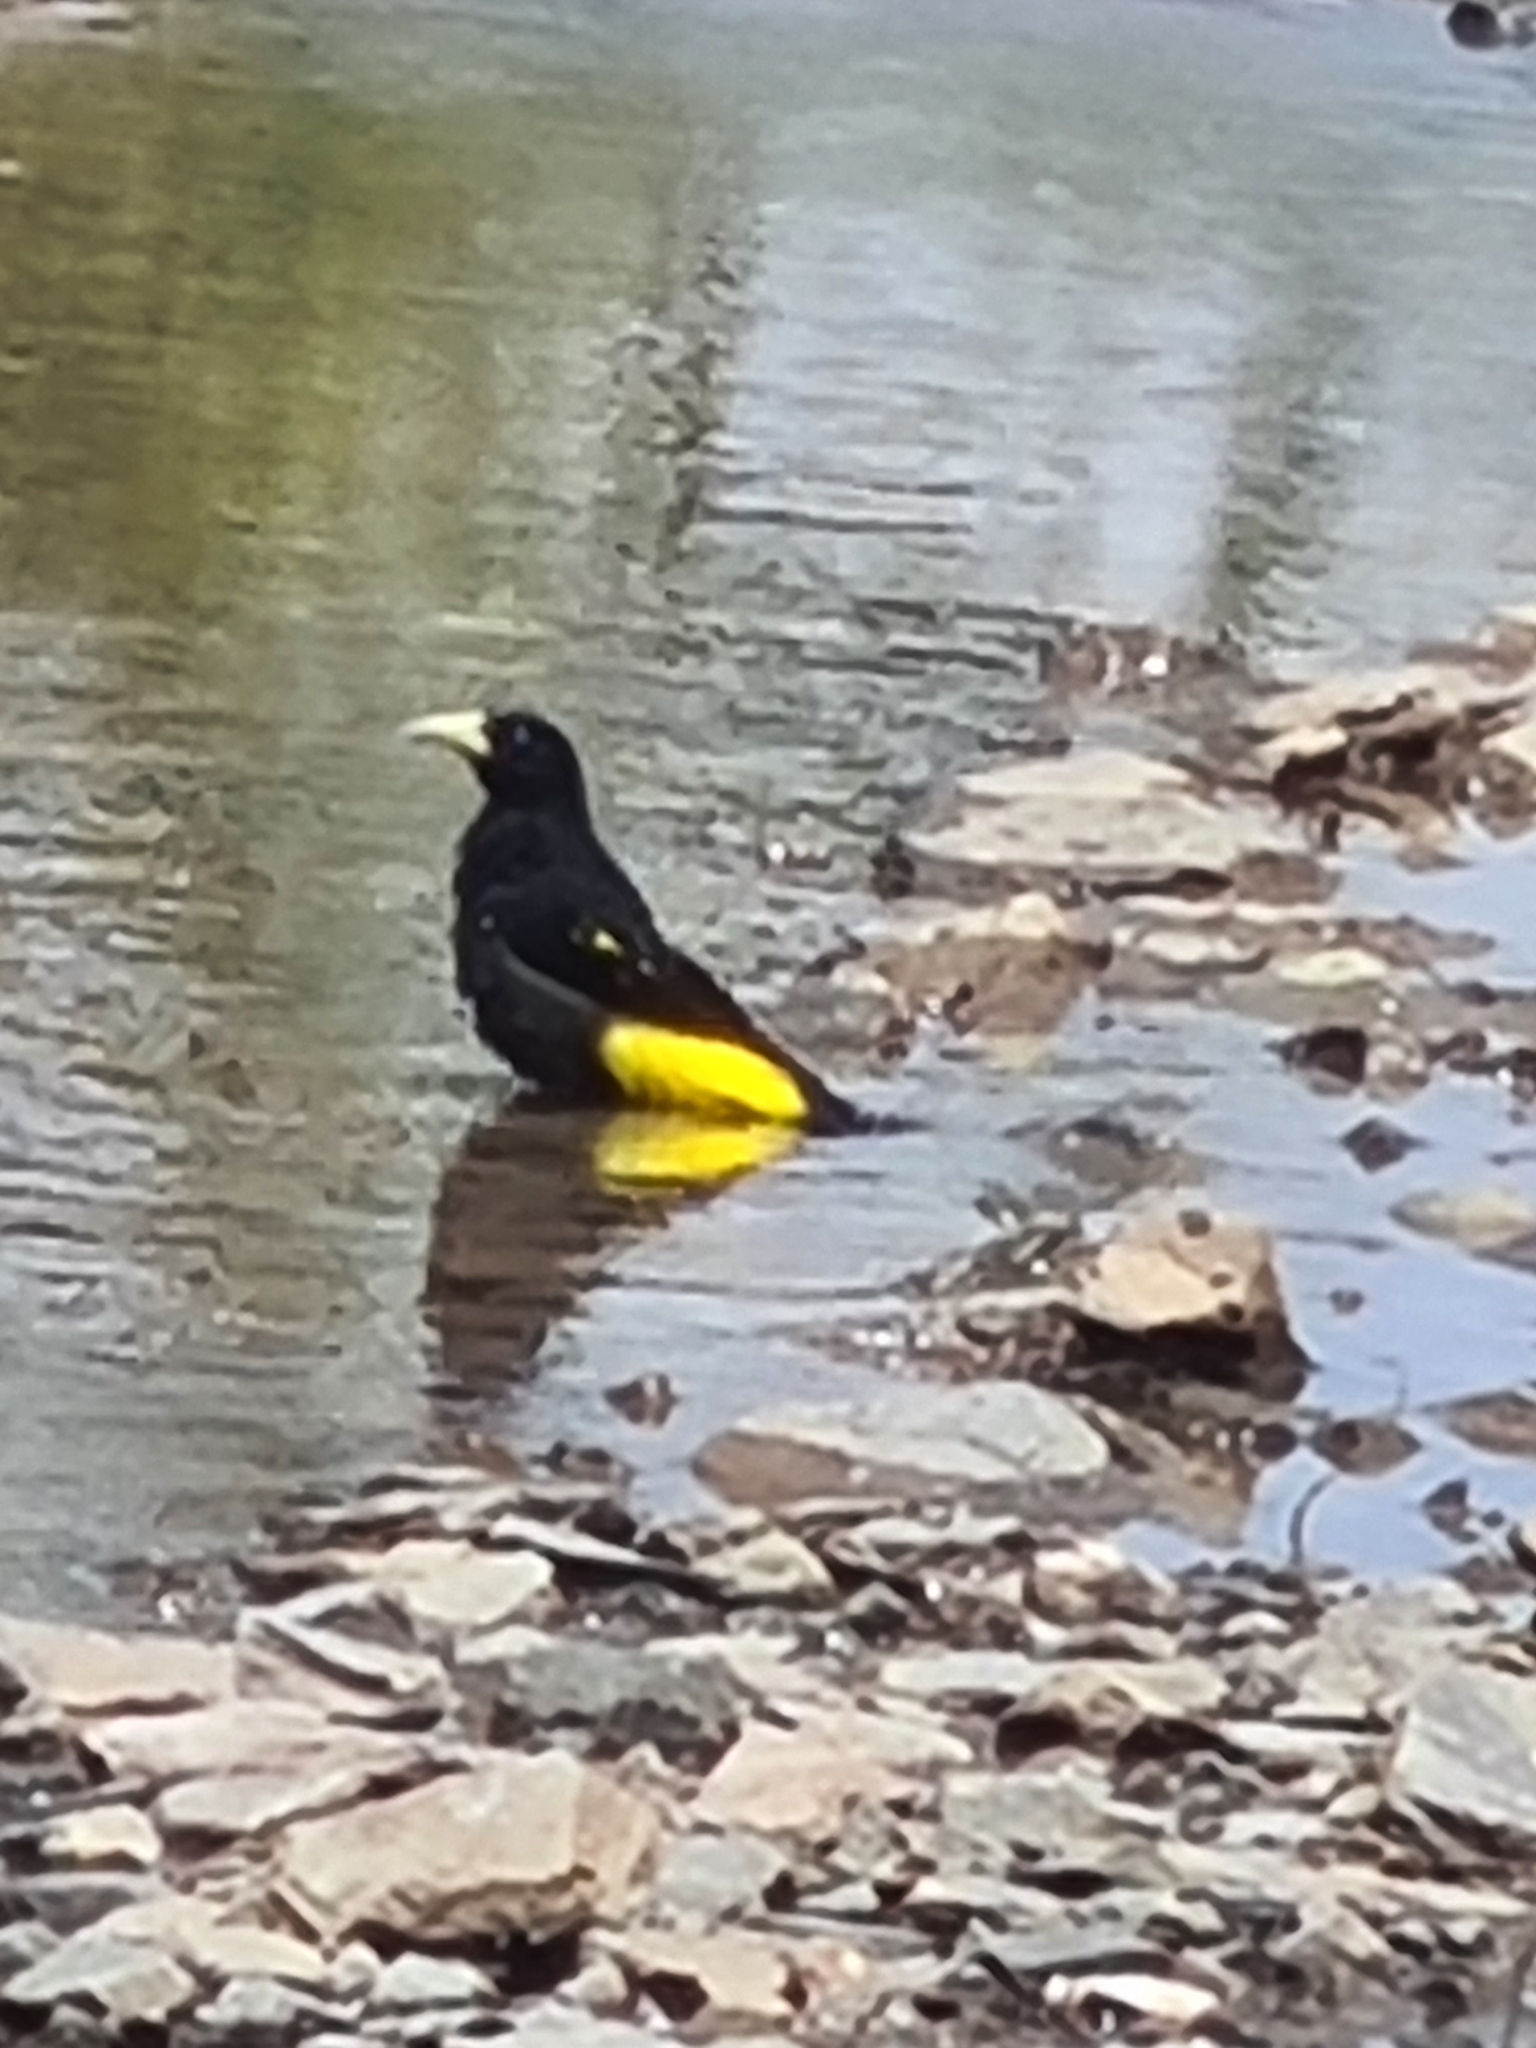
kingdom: Animalia
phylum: Chordata
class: Aves
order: Passeriformes
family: Icteridae
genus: Cacicus
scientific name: Cacicus cela
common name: Yellow-rumped cacique
